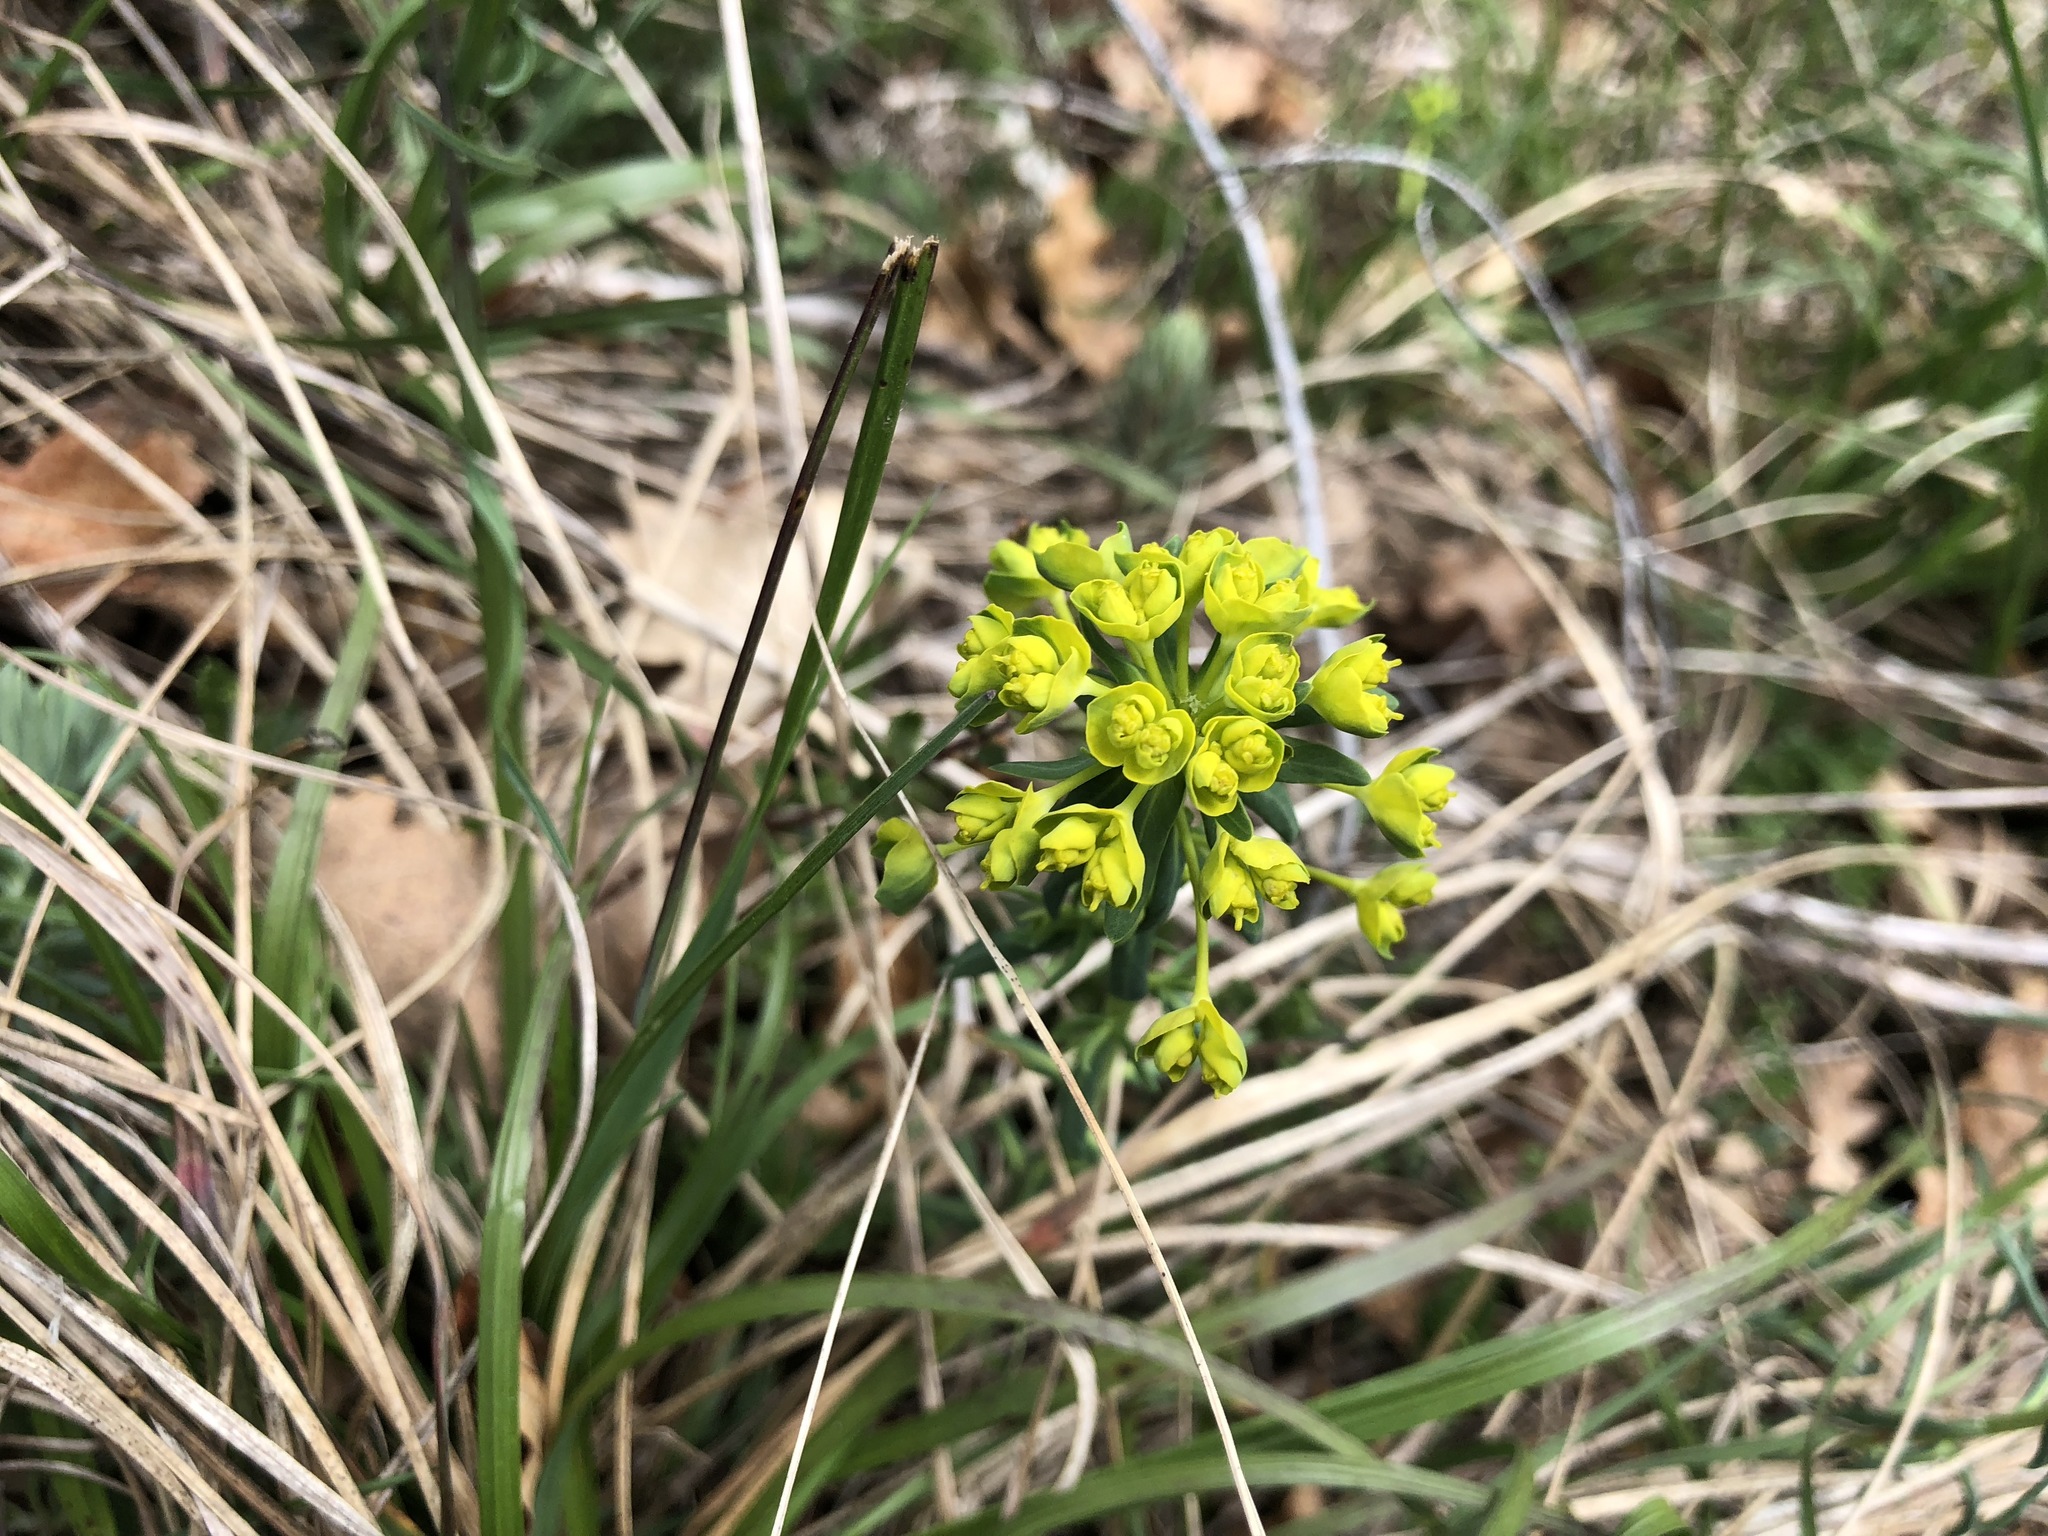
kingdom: Plantae
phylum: Tracheophyta
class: Magnoliopsida
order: Malpighiales
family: Euphorbiaceae
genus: Euphorbia
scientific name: Euphorbia cyparissias
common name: Cypress spurge
